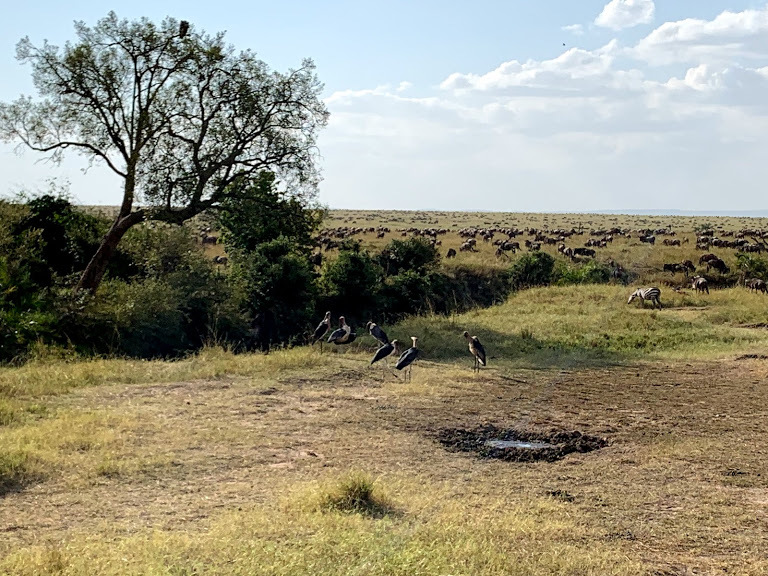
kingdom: Animalia
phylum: Chordata
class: Aves
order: Ciconiiformes
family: Ciconiidae
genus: Leptoptilos
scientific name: Leptoptilos crumenifer
